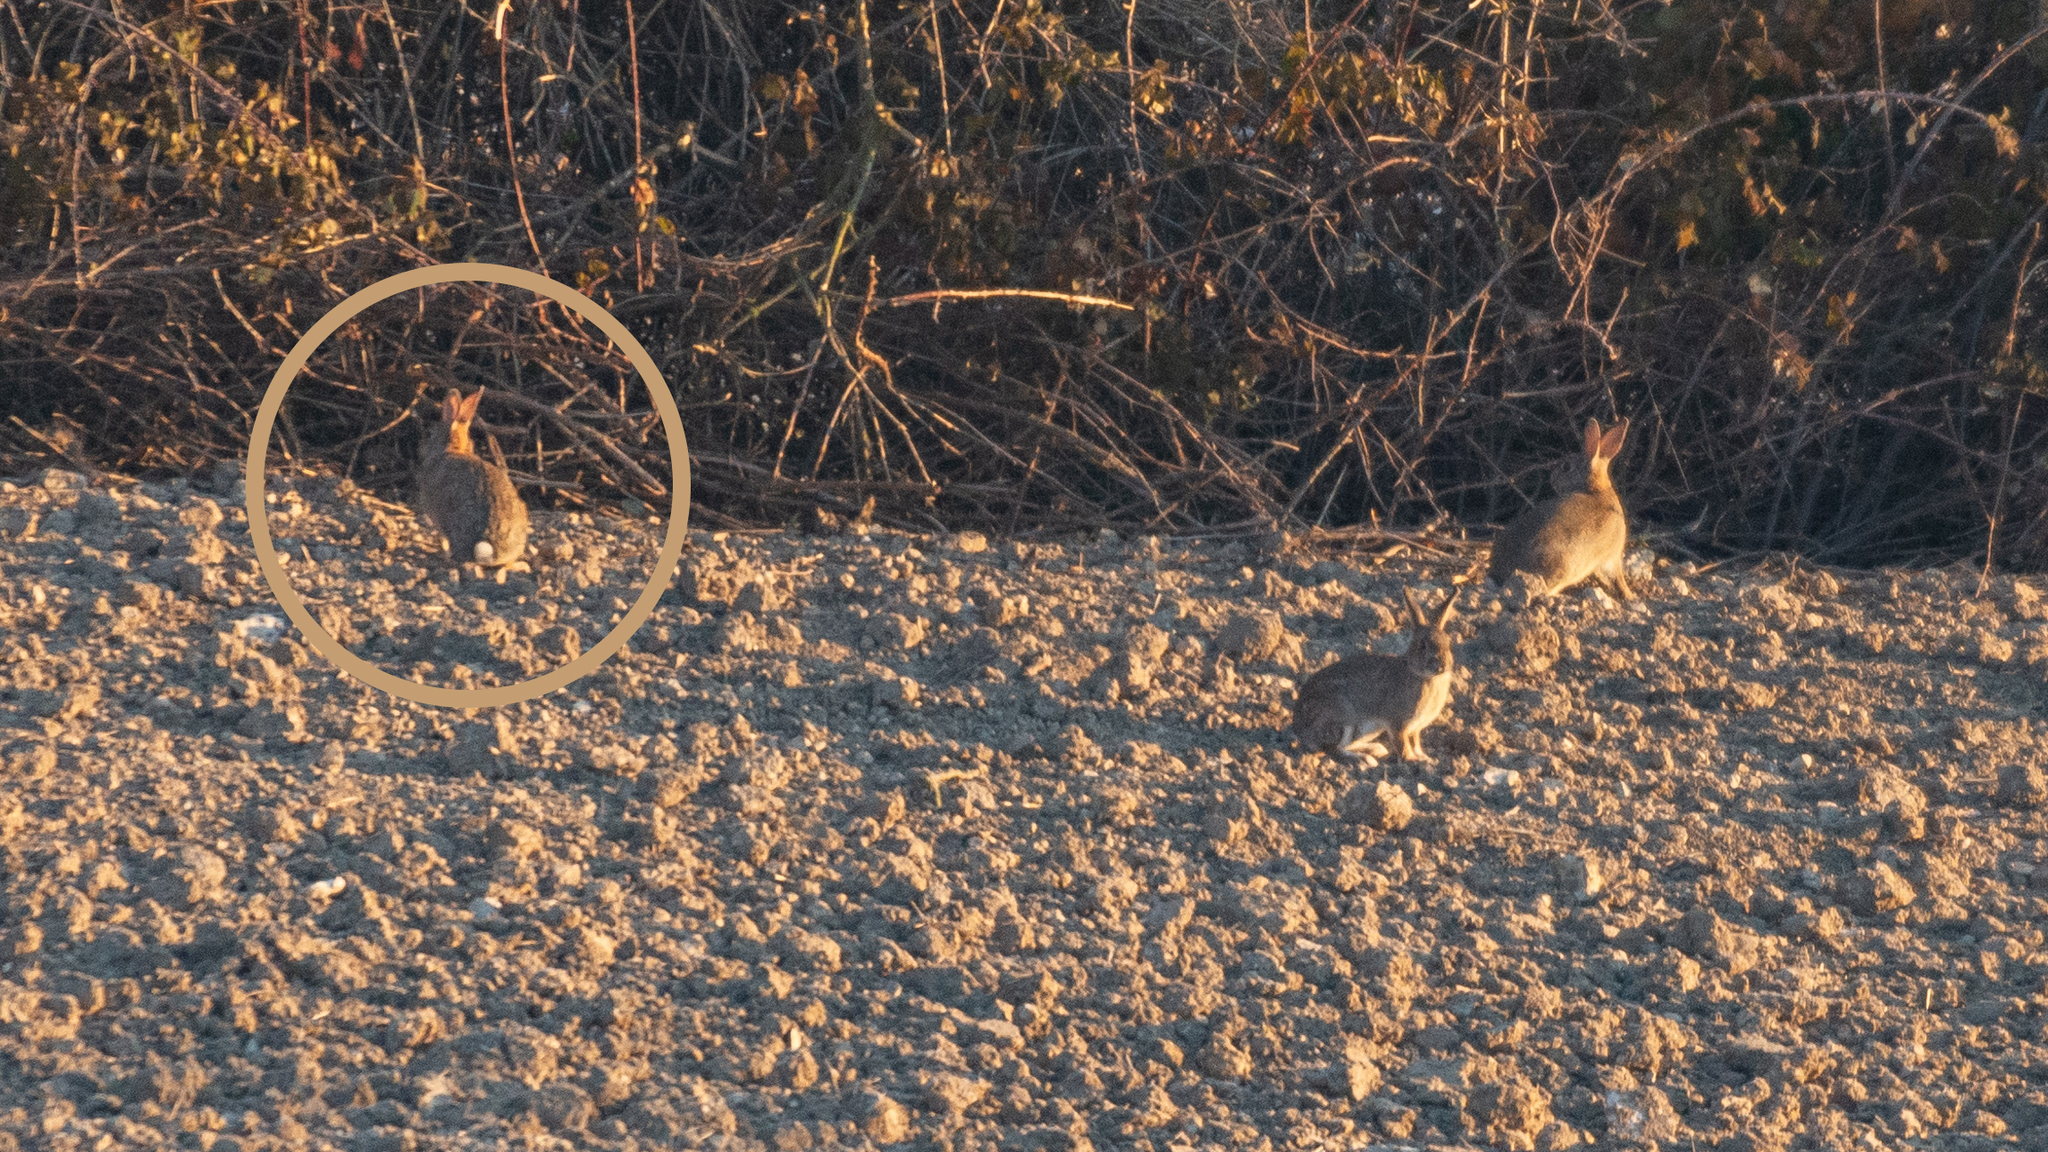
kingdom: Animalia
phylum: Chordata
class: Mammalia
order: Lagomorpha
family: Leporidae
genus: Oryctolagus
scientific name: Oryctolagus cuniculus
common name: European rabbit
